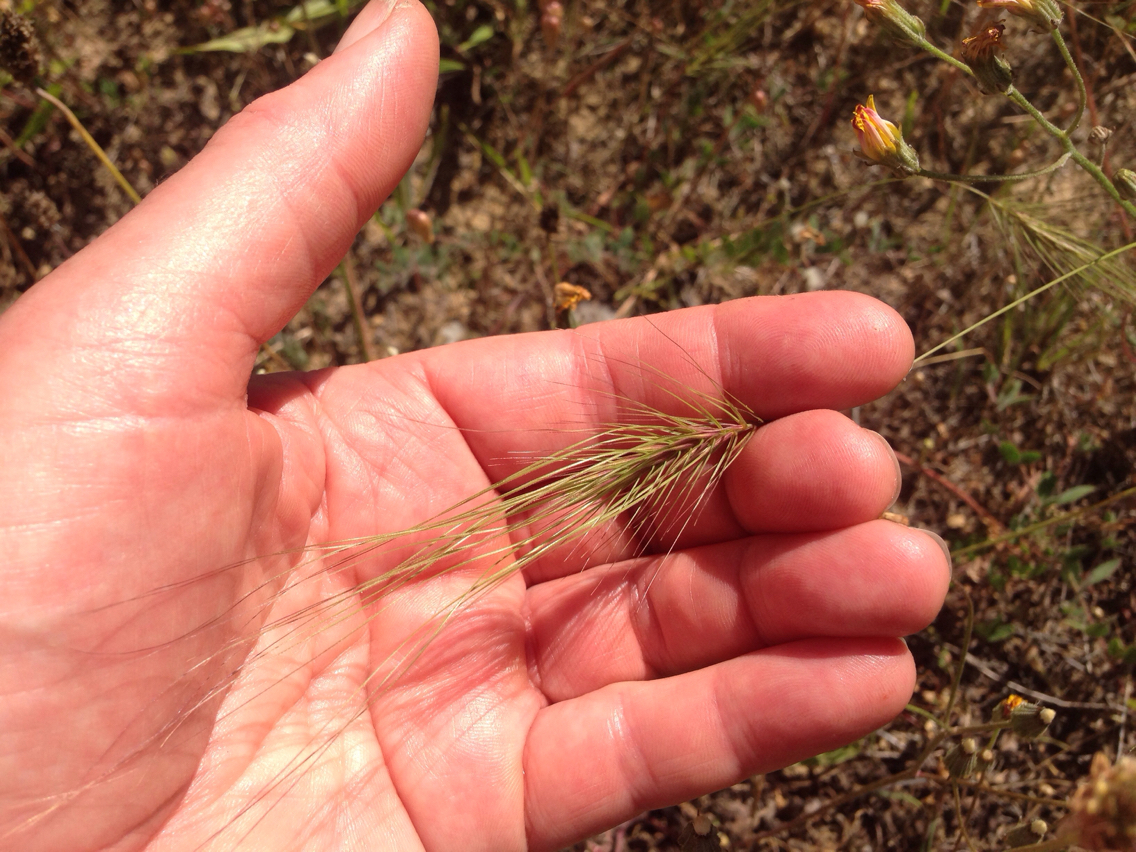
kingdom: Plantae
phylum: Tracheophyta
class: Liliopsida
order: Poales
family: Poaceae
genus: Taeniatherum
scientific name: Taeniatherum caput-medusae
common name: Medusahead
